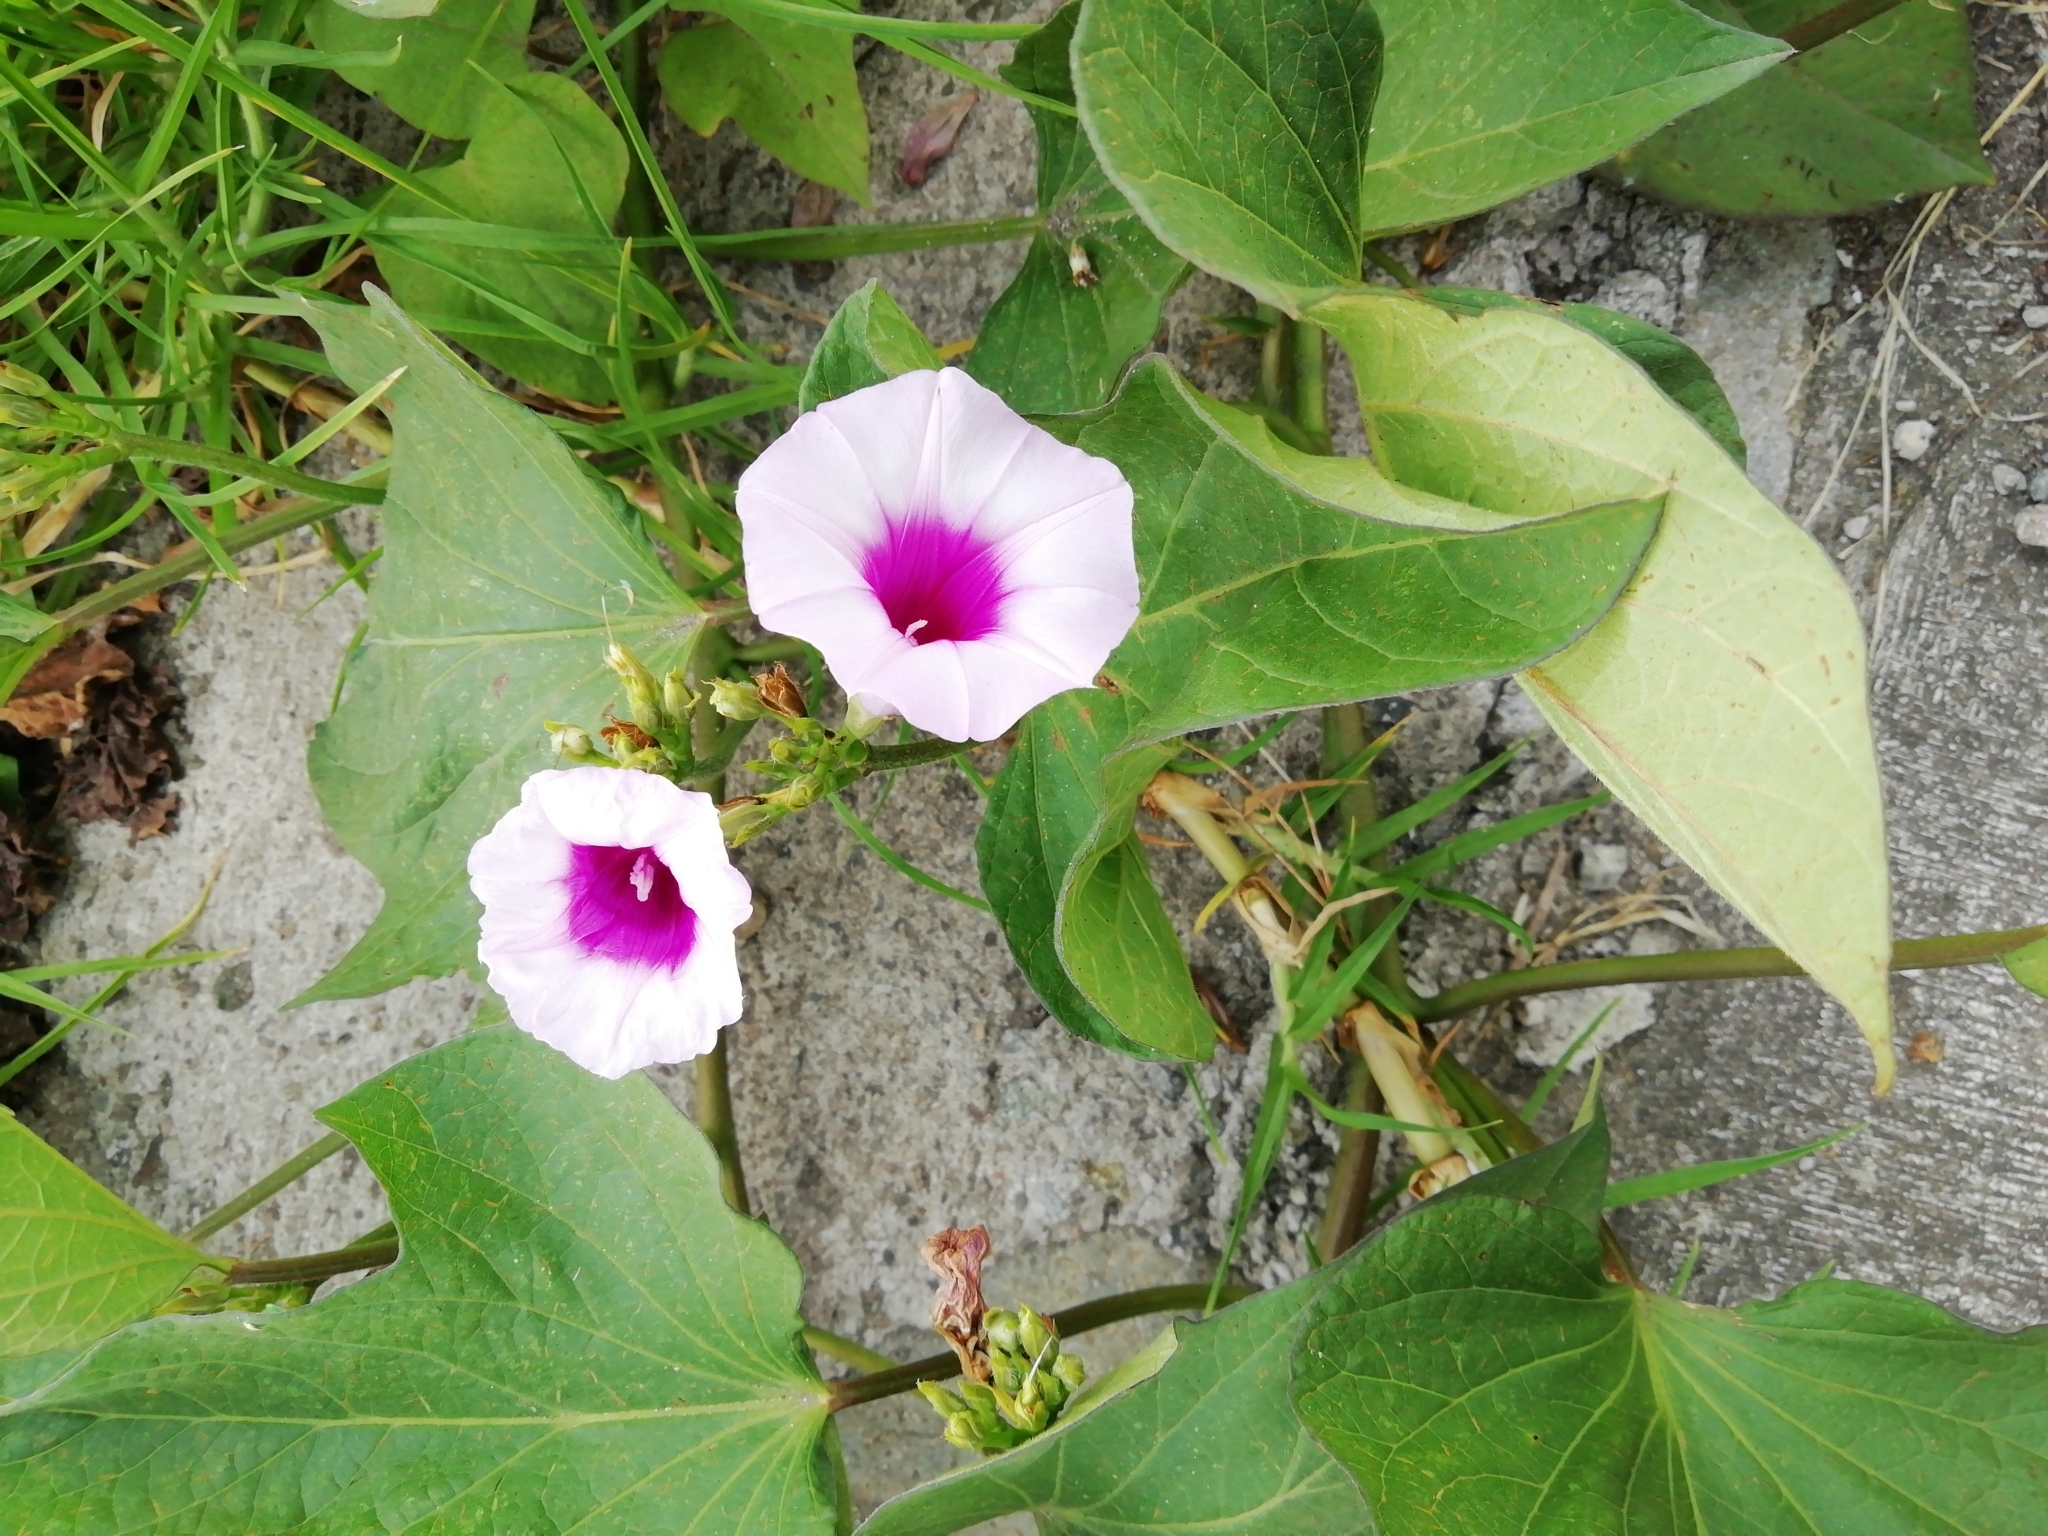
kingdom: Plantae
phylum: Tracheophyta
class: Magnoliopsida
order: Solanales
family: Convolvulaceae
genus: Ipomoea
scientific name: Ipomoea batatas
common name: Sweet-potato
